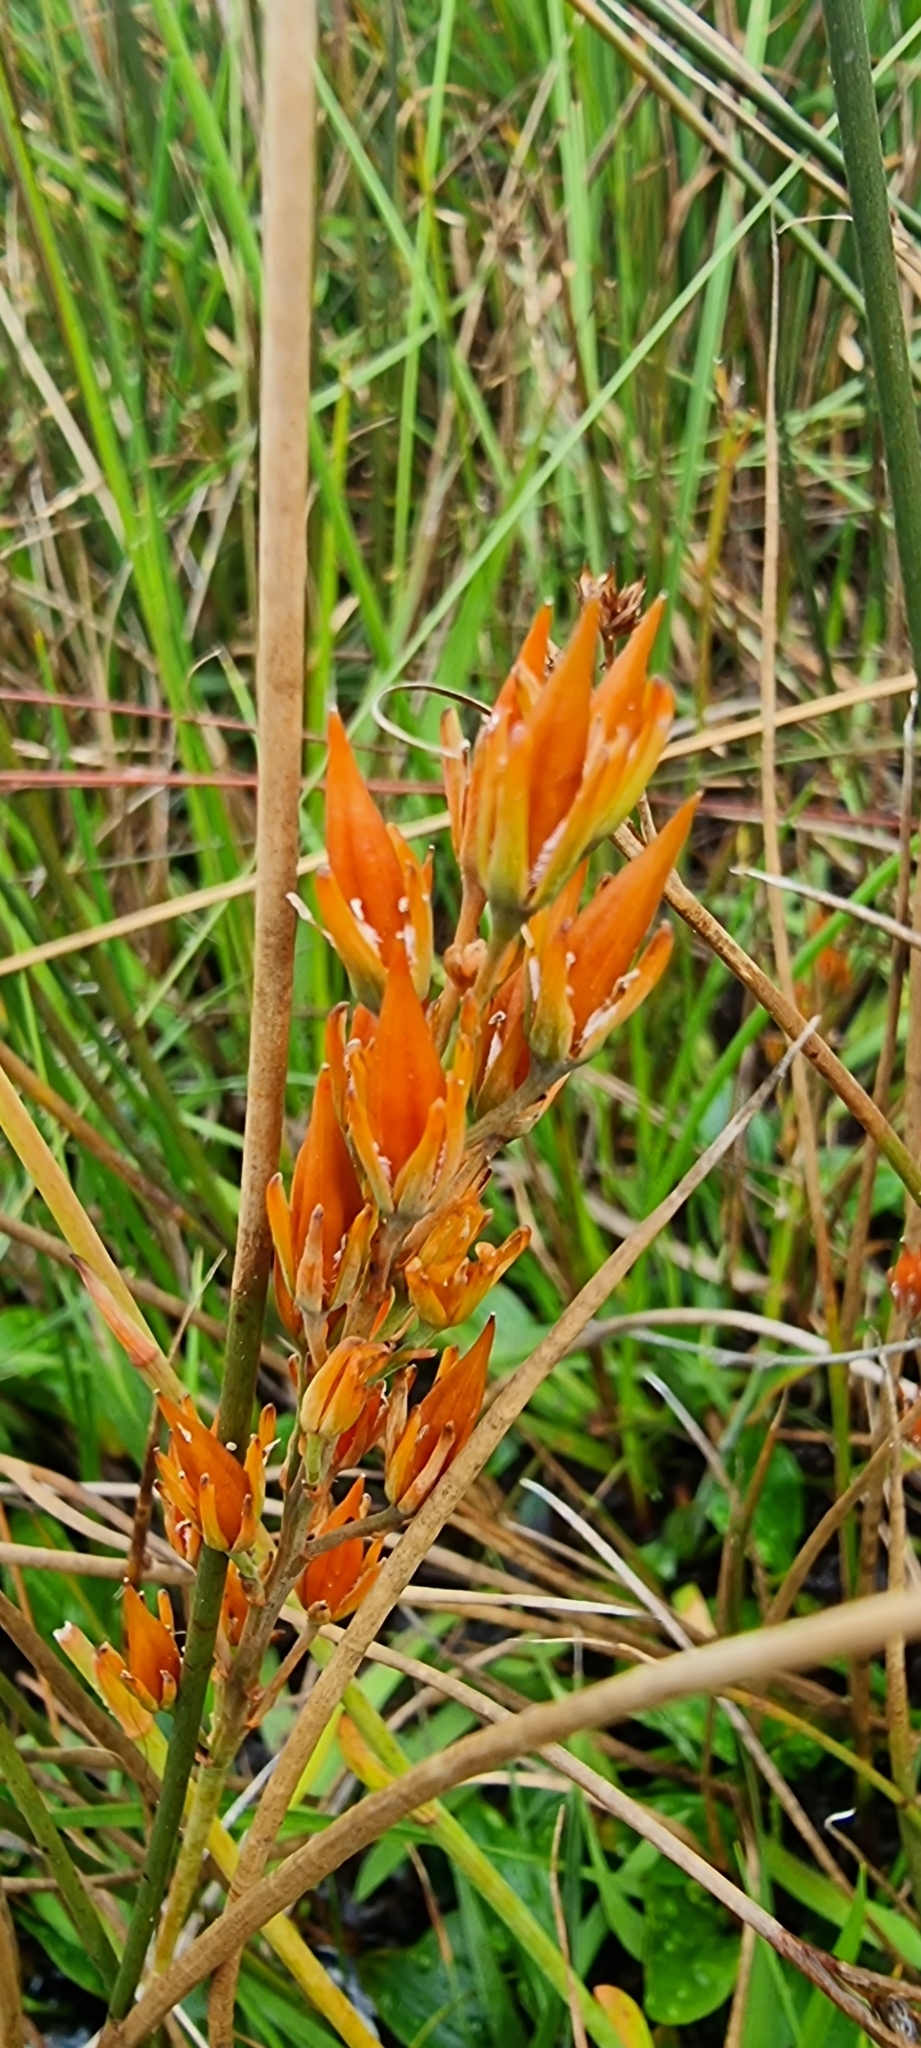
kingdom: Plantae
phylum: Tracheophyta
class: Liliopsida
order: Dioscoreales
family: Nartheciaceae
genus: Narthecium
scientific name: Narthecium ossifragum
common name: Bog asphodel
